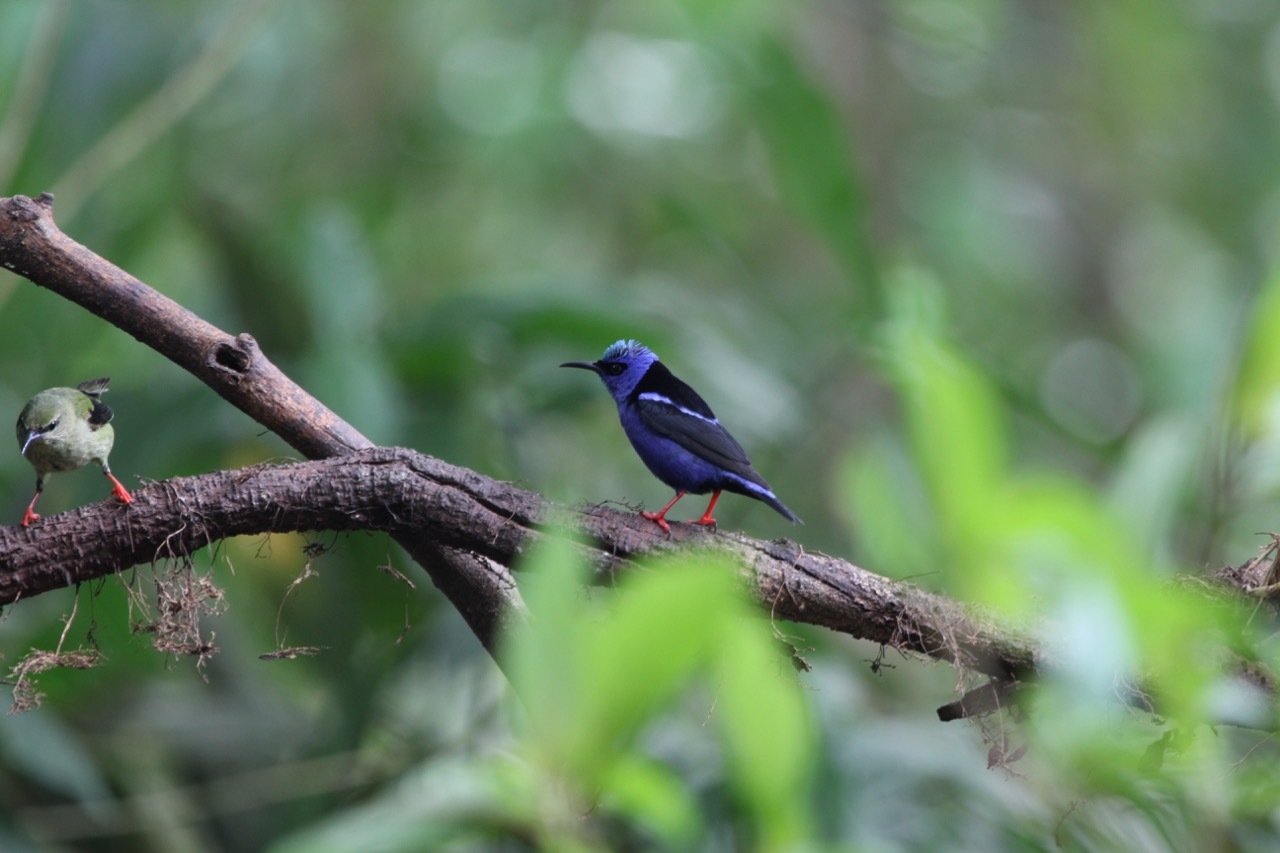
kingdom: Animalia
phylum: Chordata
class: Aves
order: Passeriformes
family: Thraupidae
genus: Cyanerpes
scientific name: Cyanerpes cyaneus
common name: Red-legged honeycreeper
